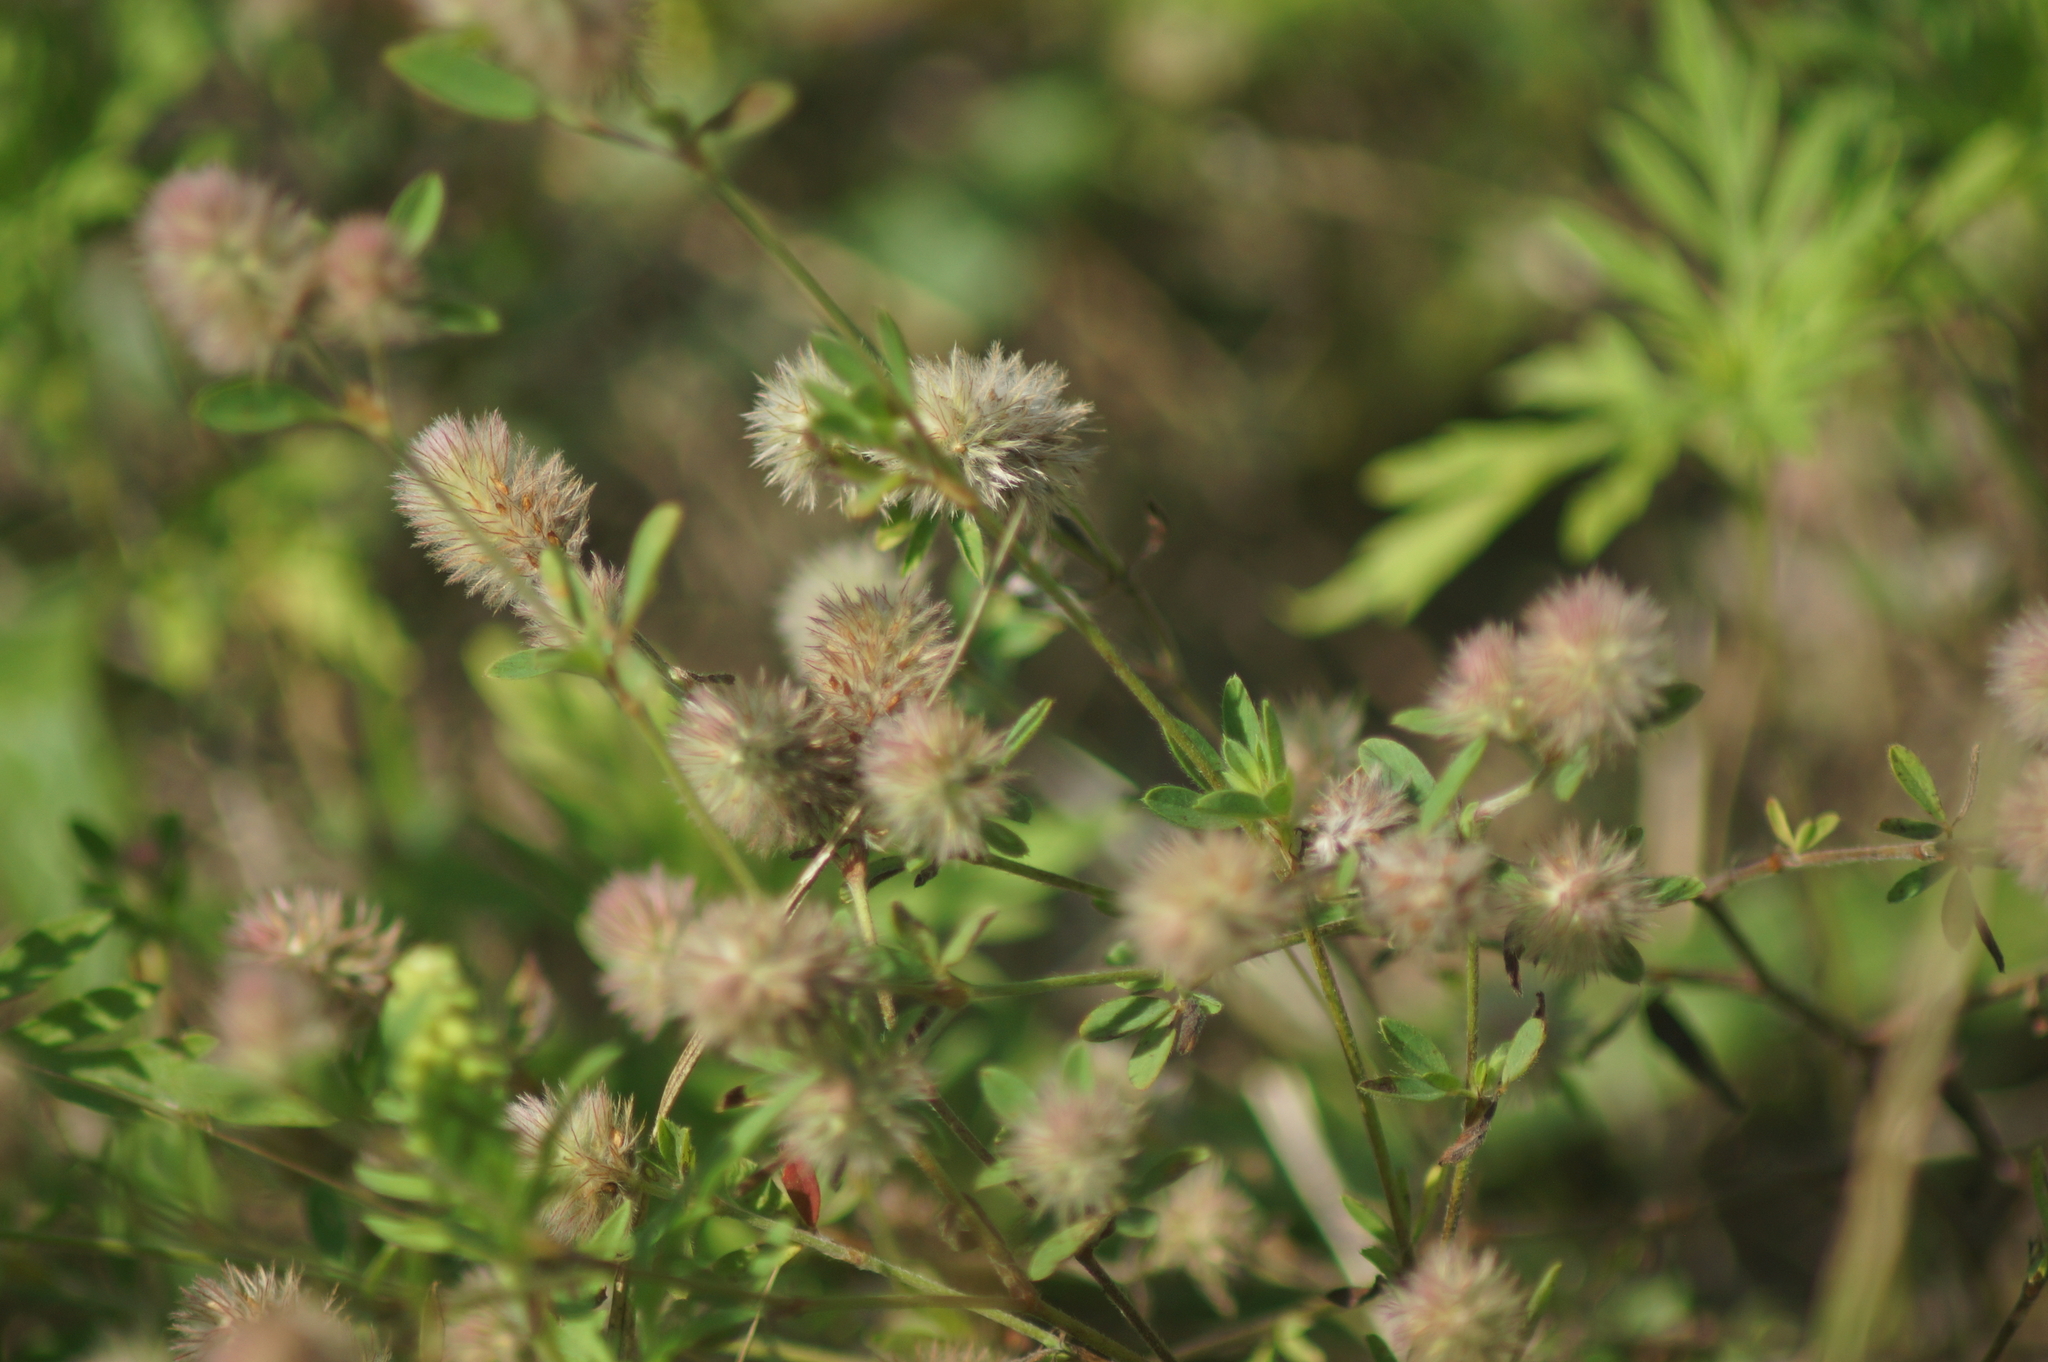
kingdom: Plantae
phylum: Tracheophyta
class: Magnoliopsida
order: Fabales
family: Fabaceae
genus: Trifolium
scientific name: Trifolium arvense
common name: Hare's-foot clover
